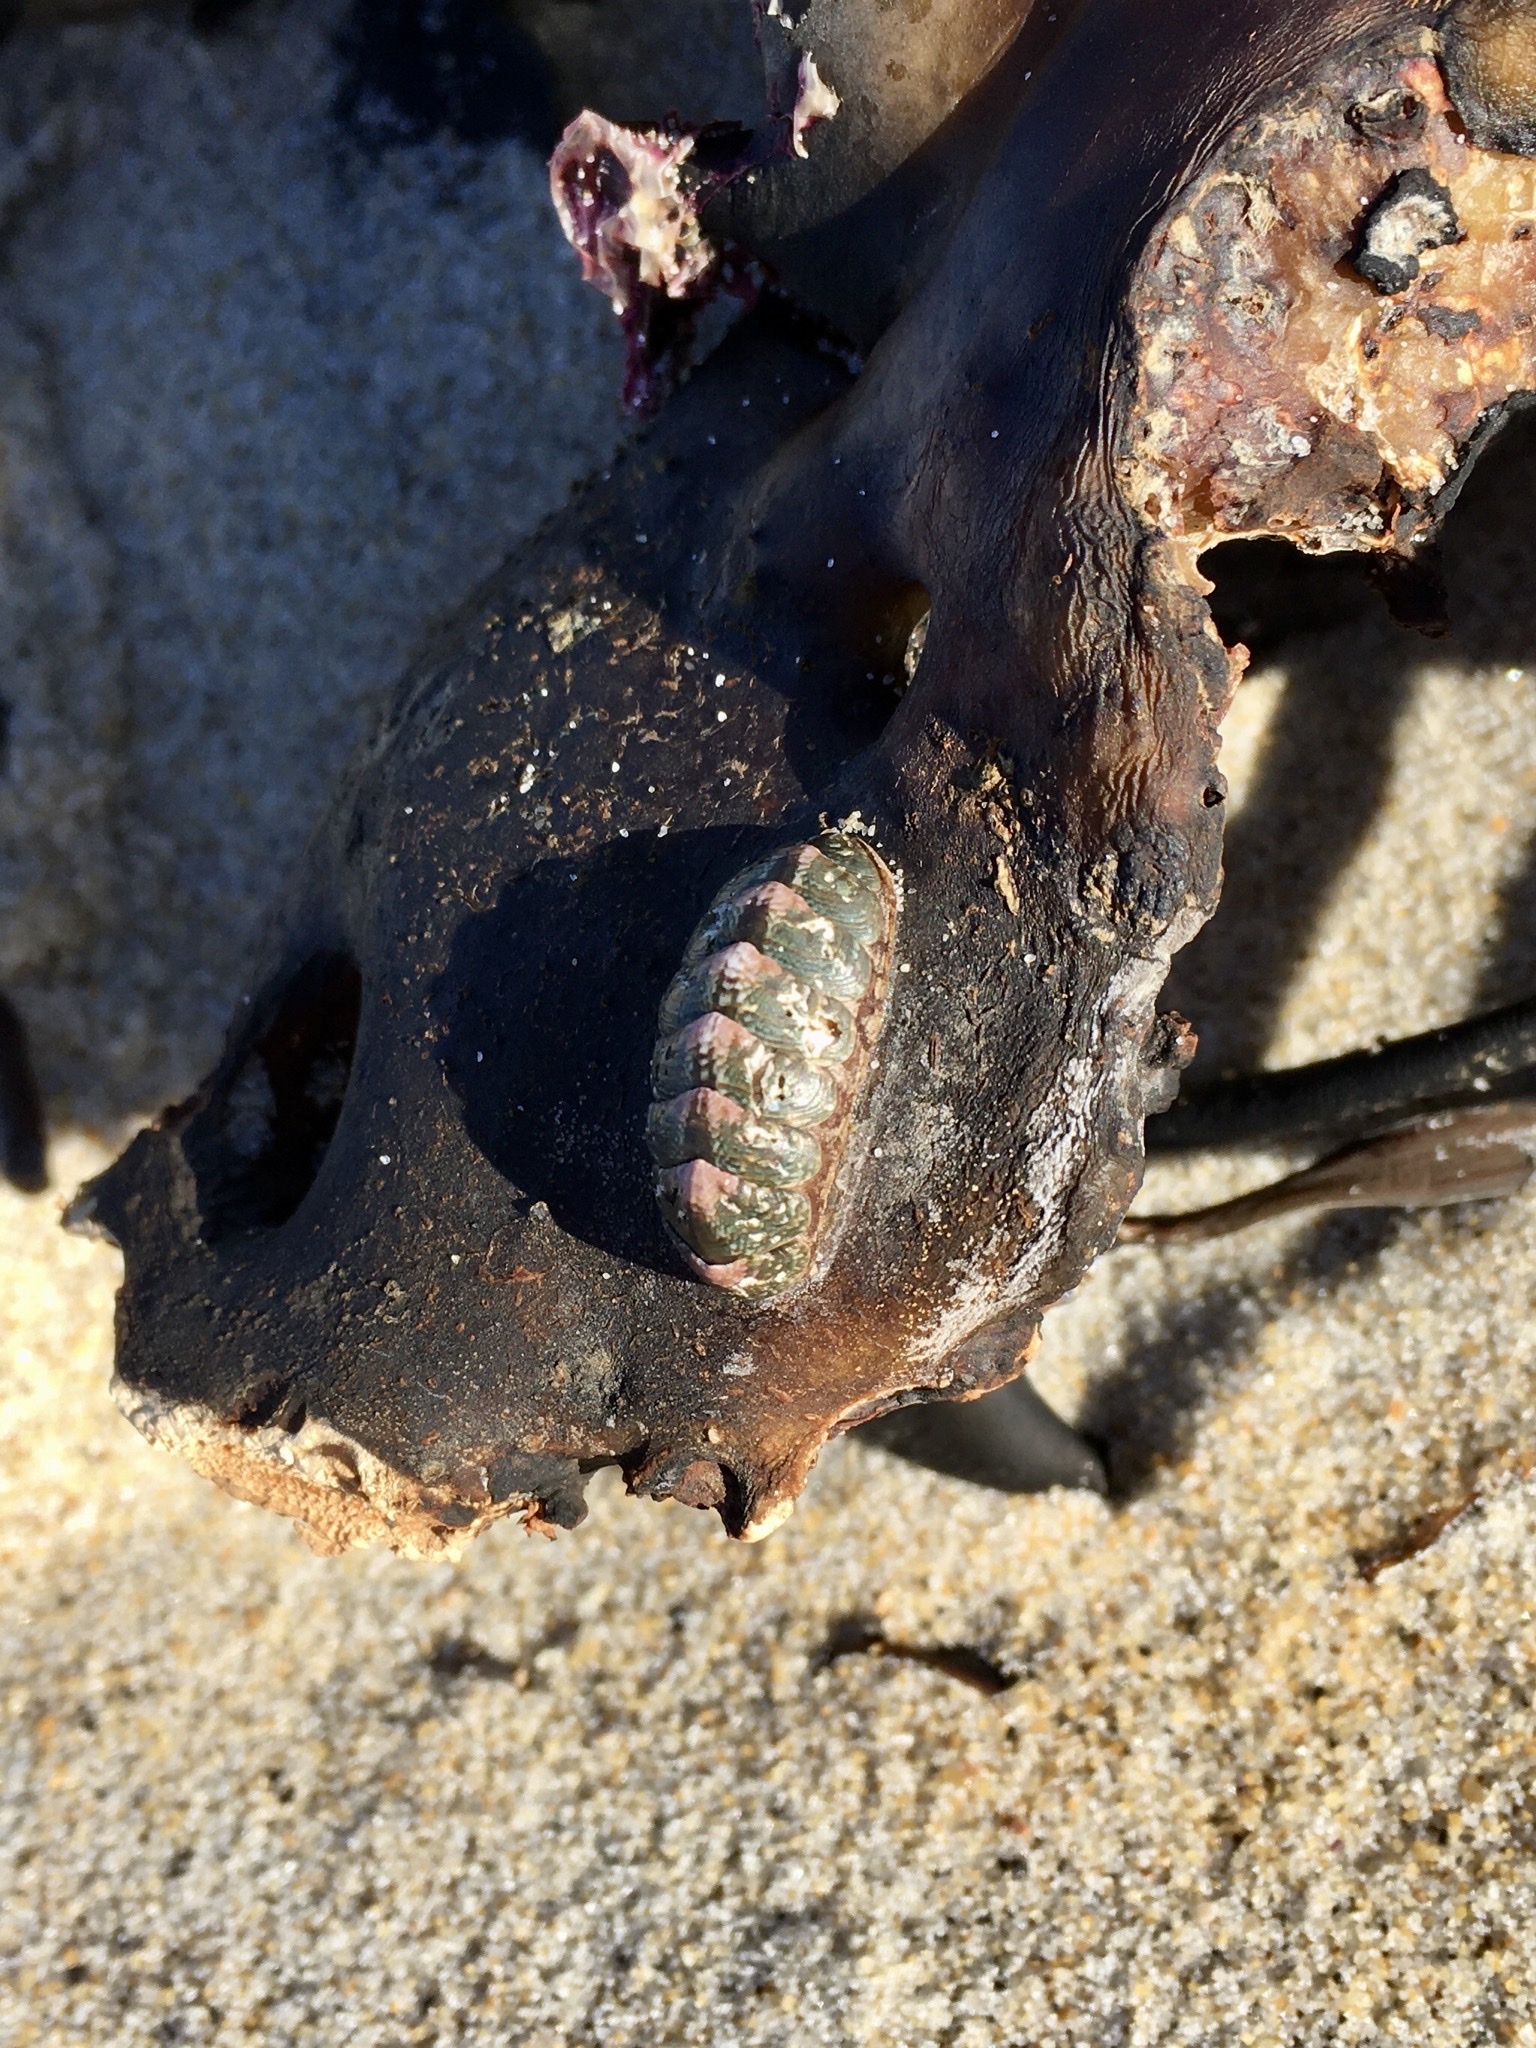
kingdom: Animalia
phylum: Mollusca
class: Polyplacophora
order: Chitonida
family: Chitonidae
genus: Onithochiton
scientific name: Onithochiton neglectus
